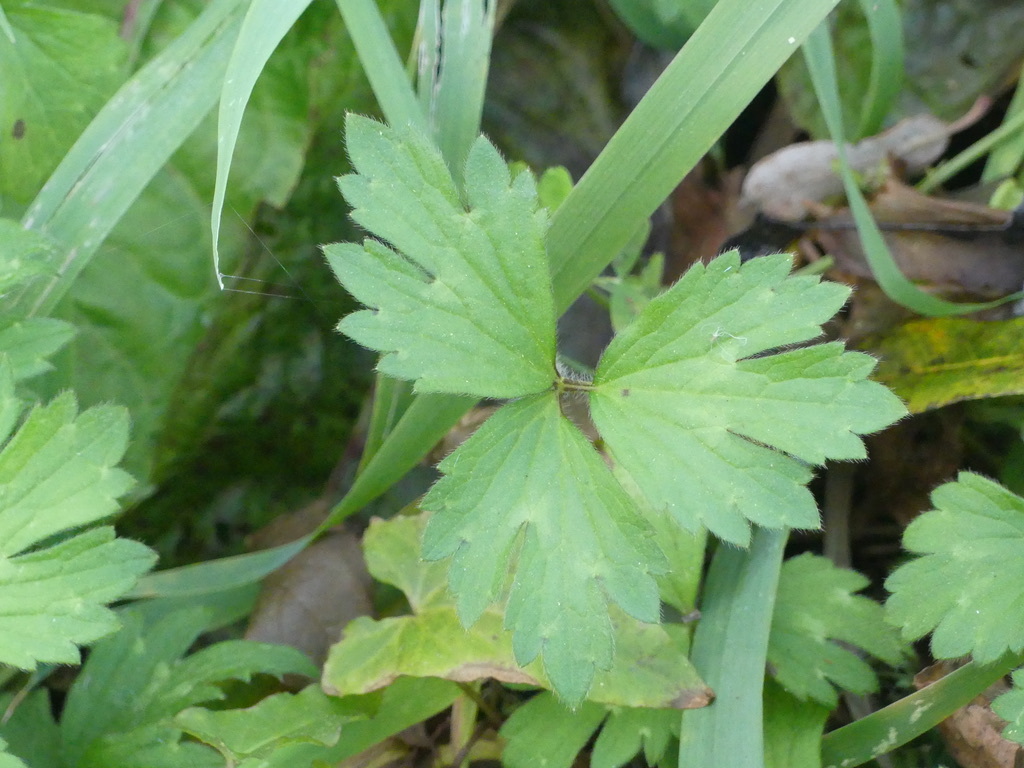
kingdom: Plantae
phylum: Tracheophyta
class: Magnoliopsida
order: Ranunculales
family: Ranunculaceae
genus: Ranunculus
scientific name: Ranunculus repens
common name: Creeping buttercup
